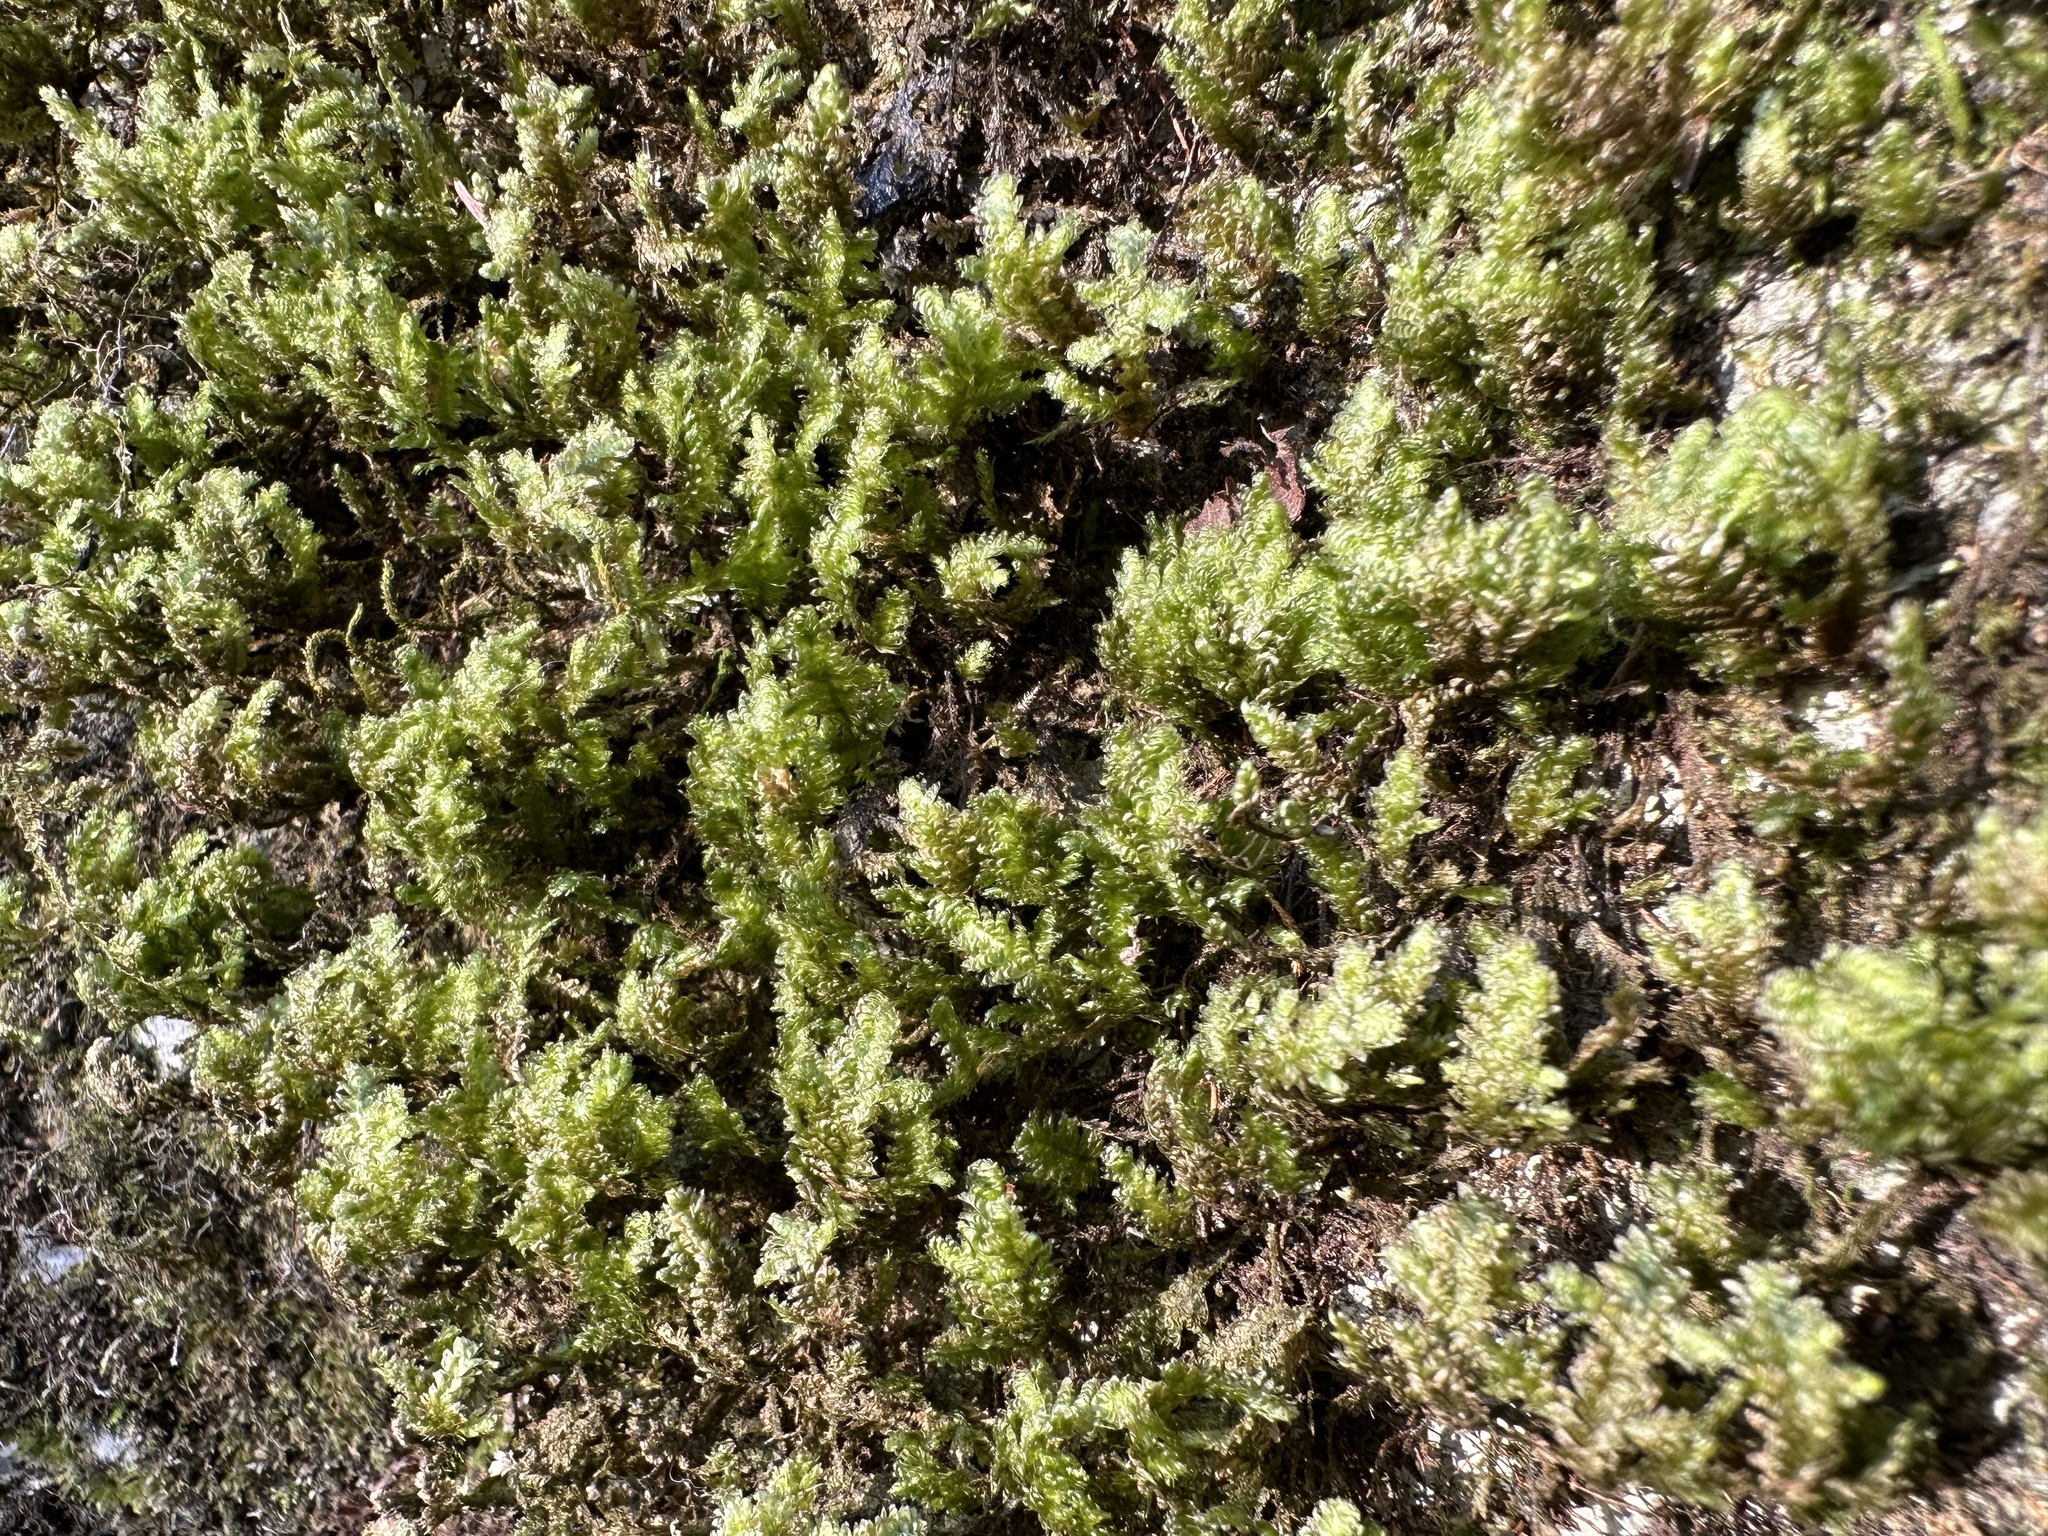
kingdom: Plantae
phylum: Bryophyta
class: Bryopsida
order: Hypnales
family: Neckeraceae
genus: Exsertotheca
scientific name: Exsertotheca crispa
